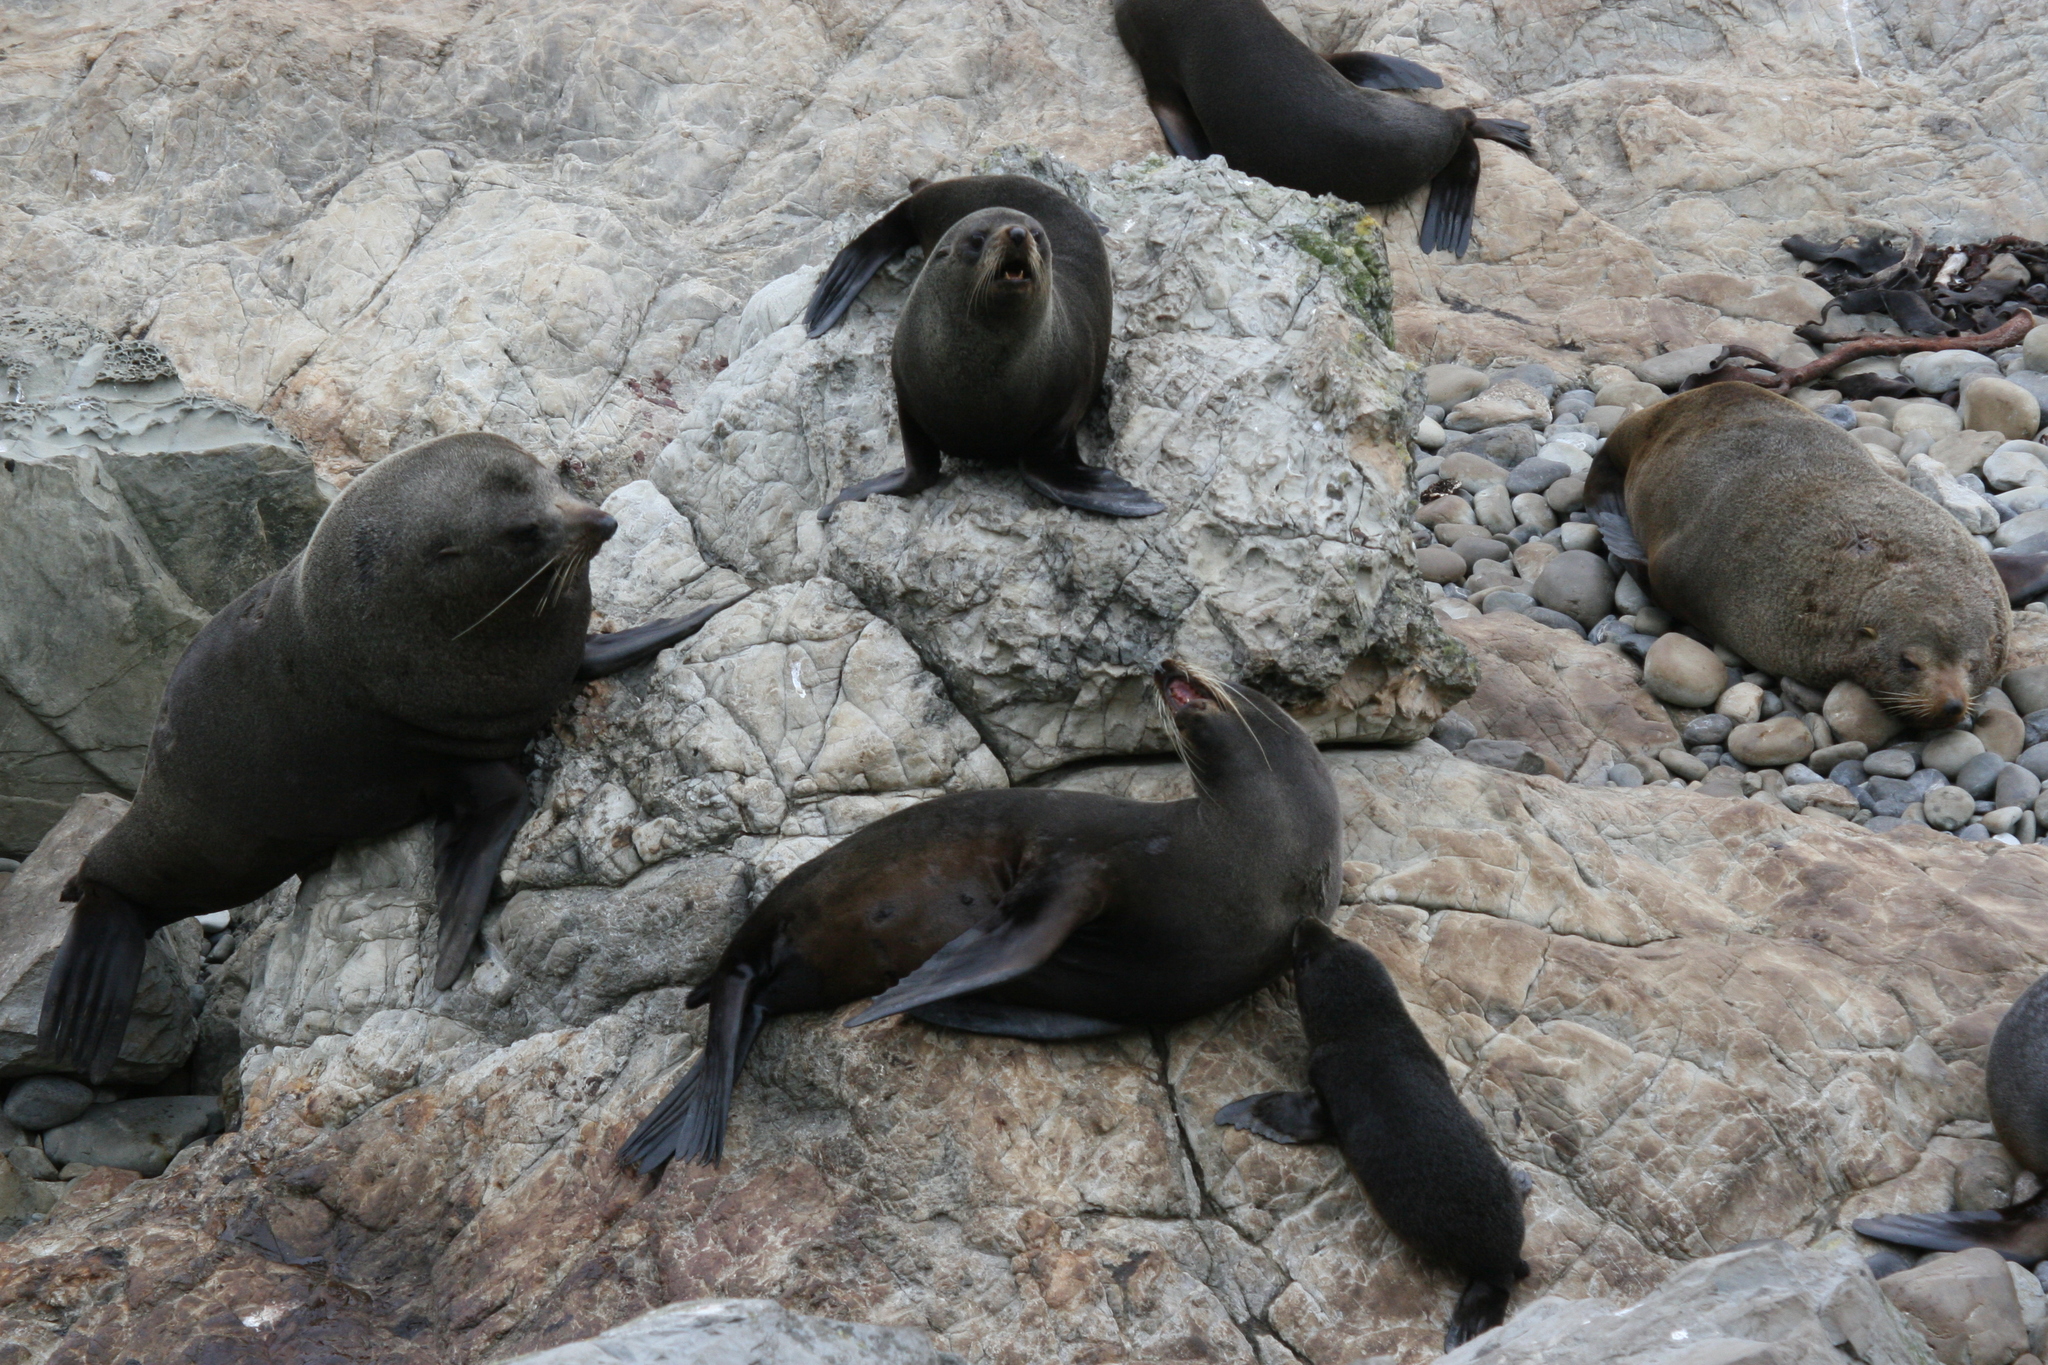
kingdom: Animalia
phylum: Chordata
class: Mammalia
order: Carnivora
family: Otariidae
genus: Arctocephalus
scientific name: Arctocephalus forsteri
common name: New zealand fur seal
